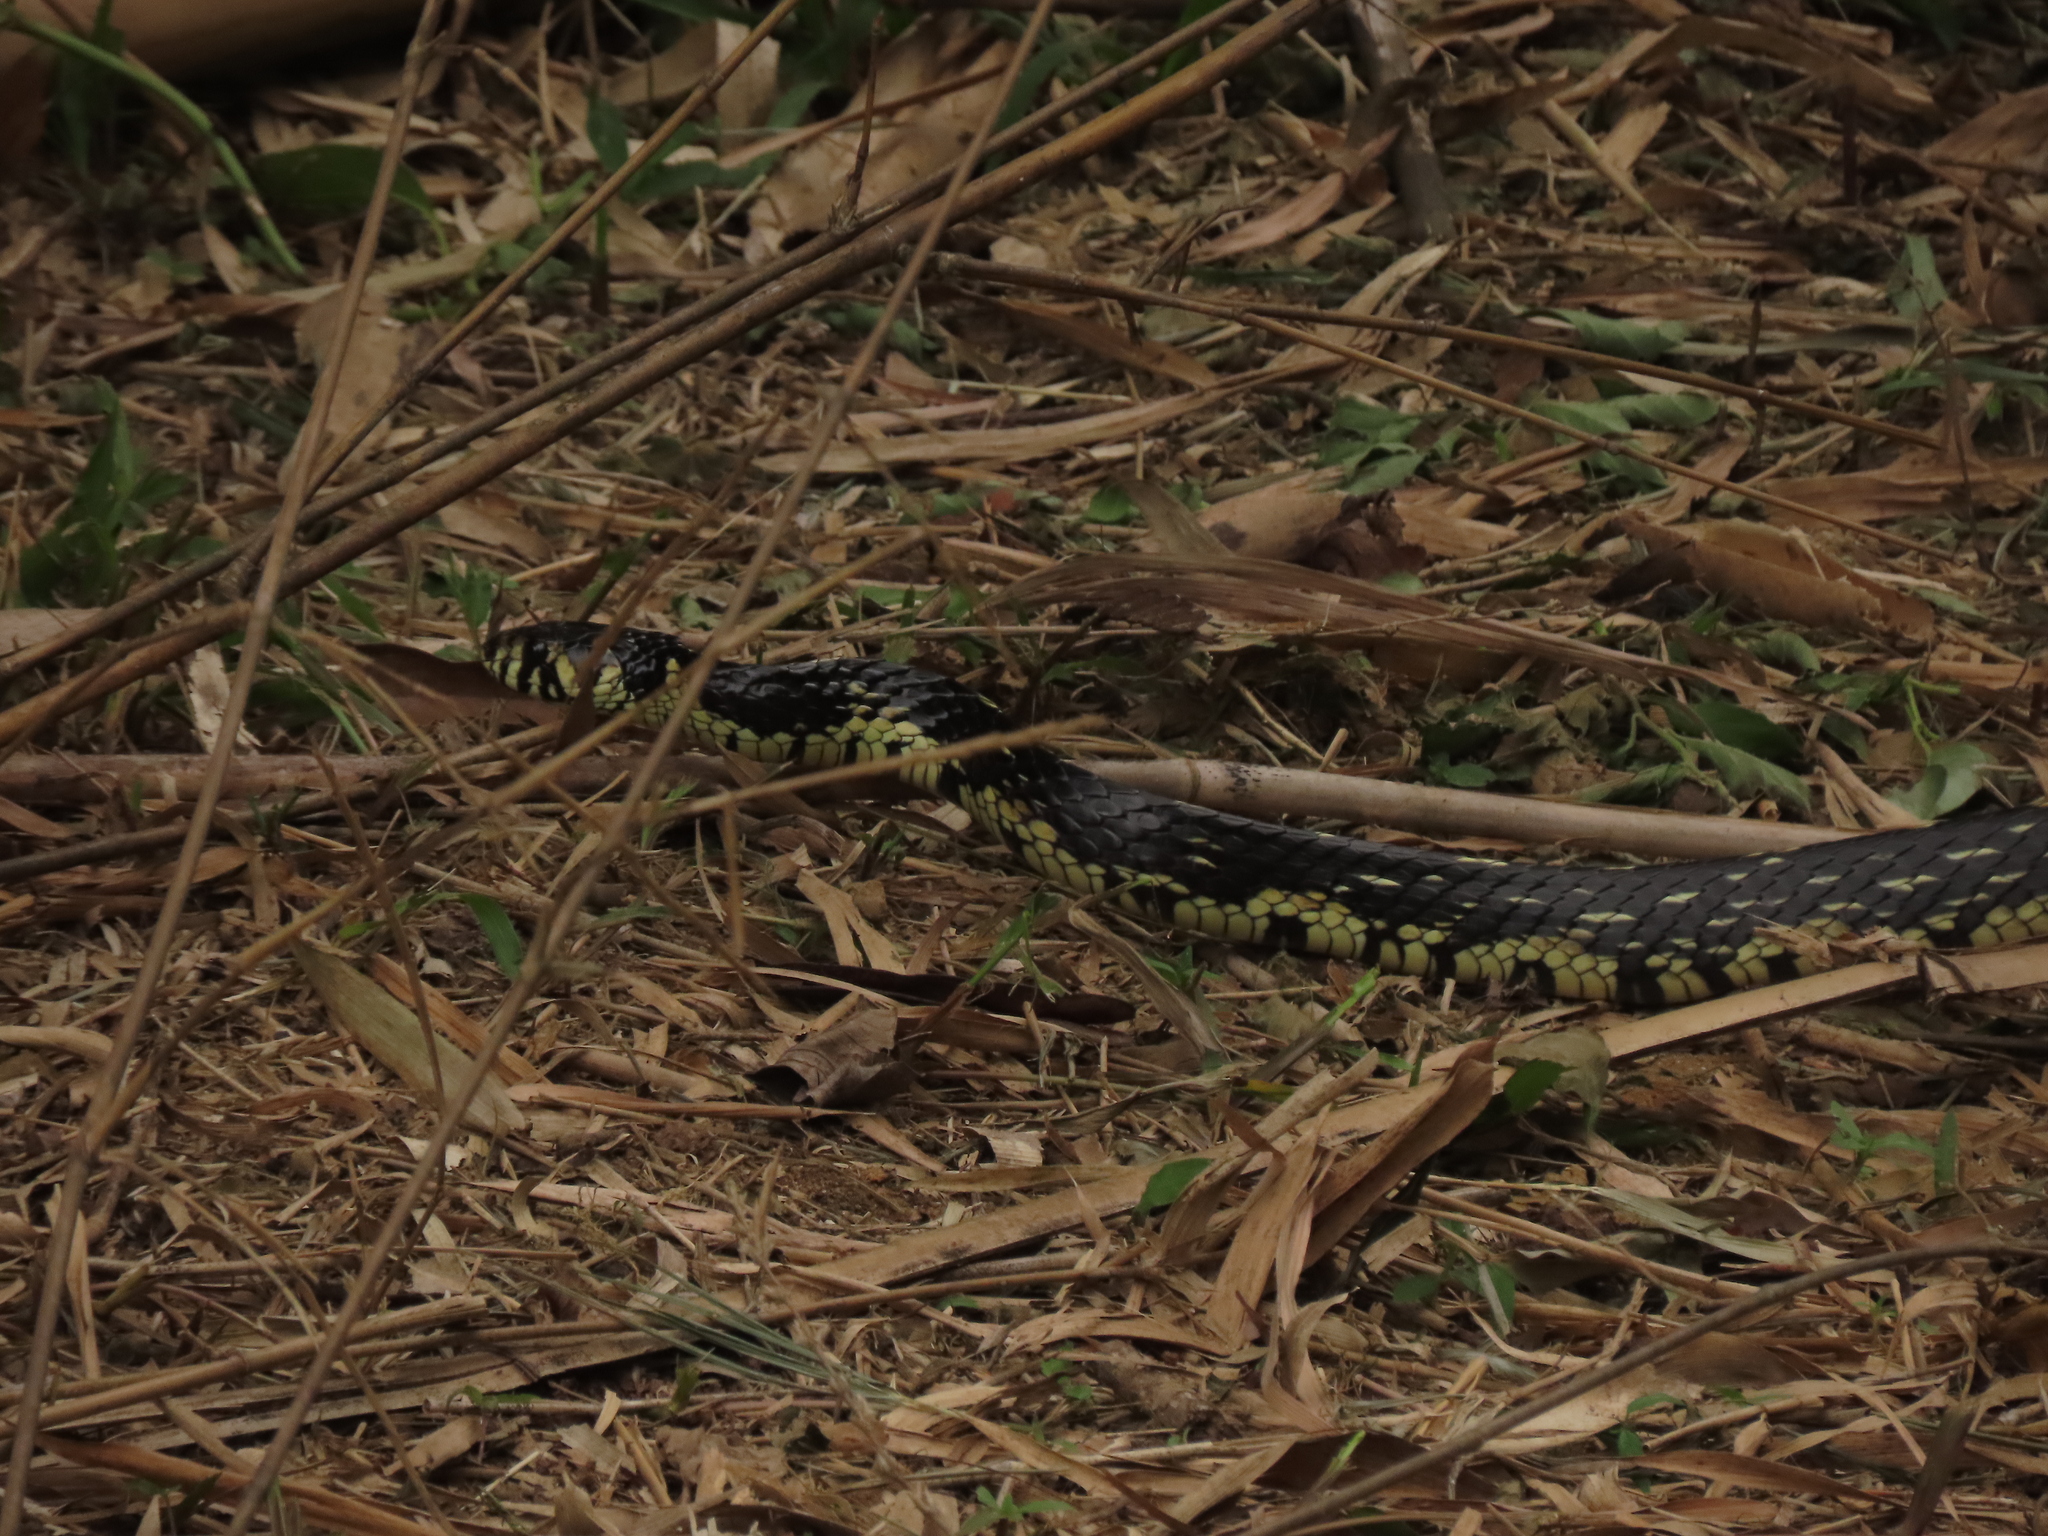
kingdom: Animalia
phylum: Chordata
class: Squamata
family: Colubridae
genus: Spilotes
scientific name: Spilotes pullatus
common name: Chicken snake
